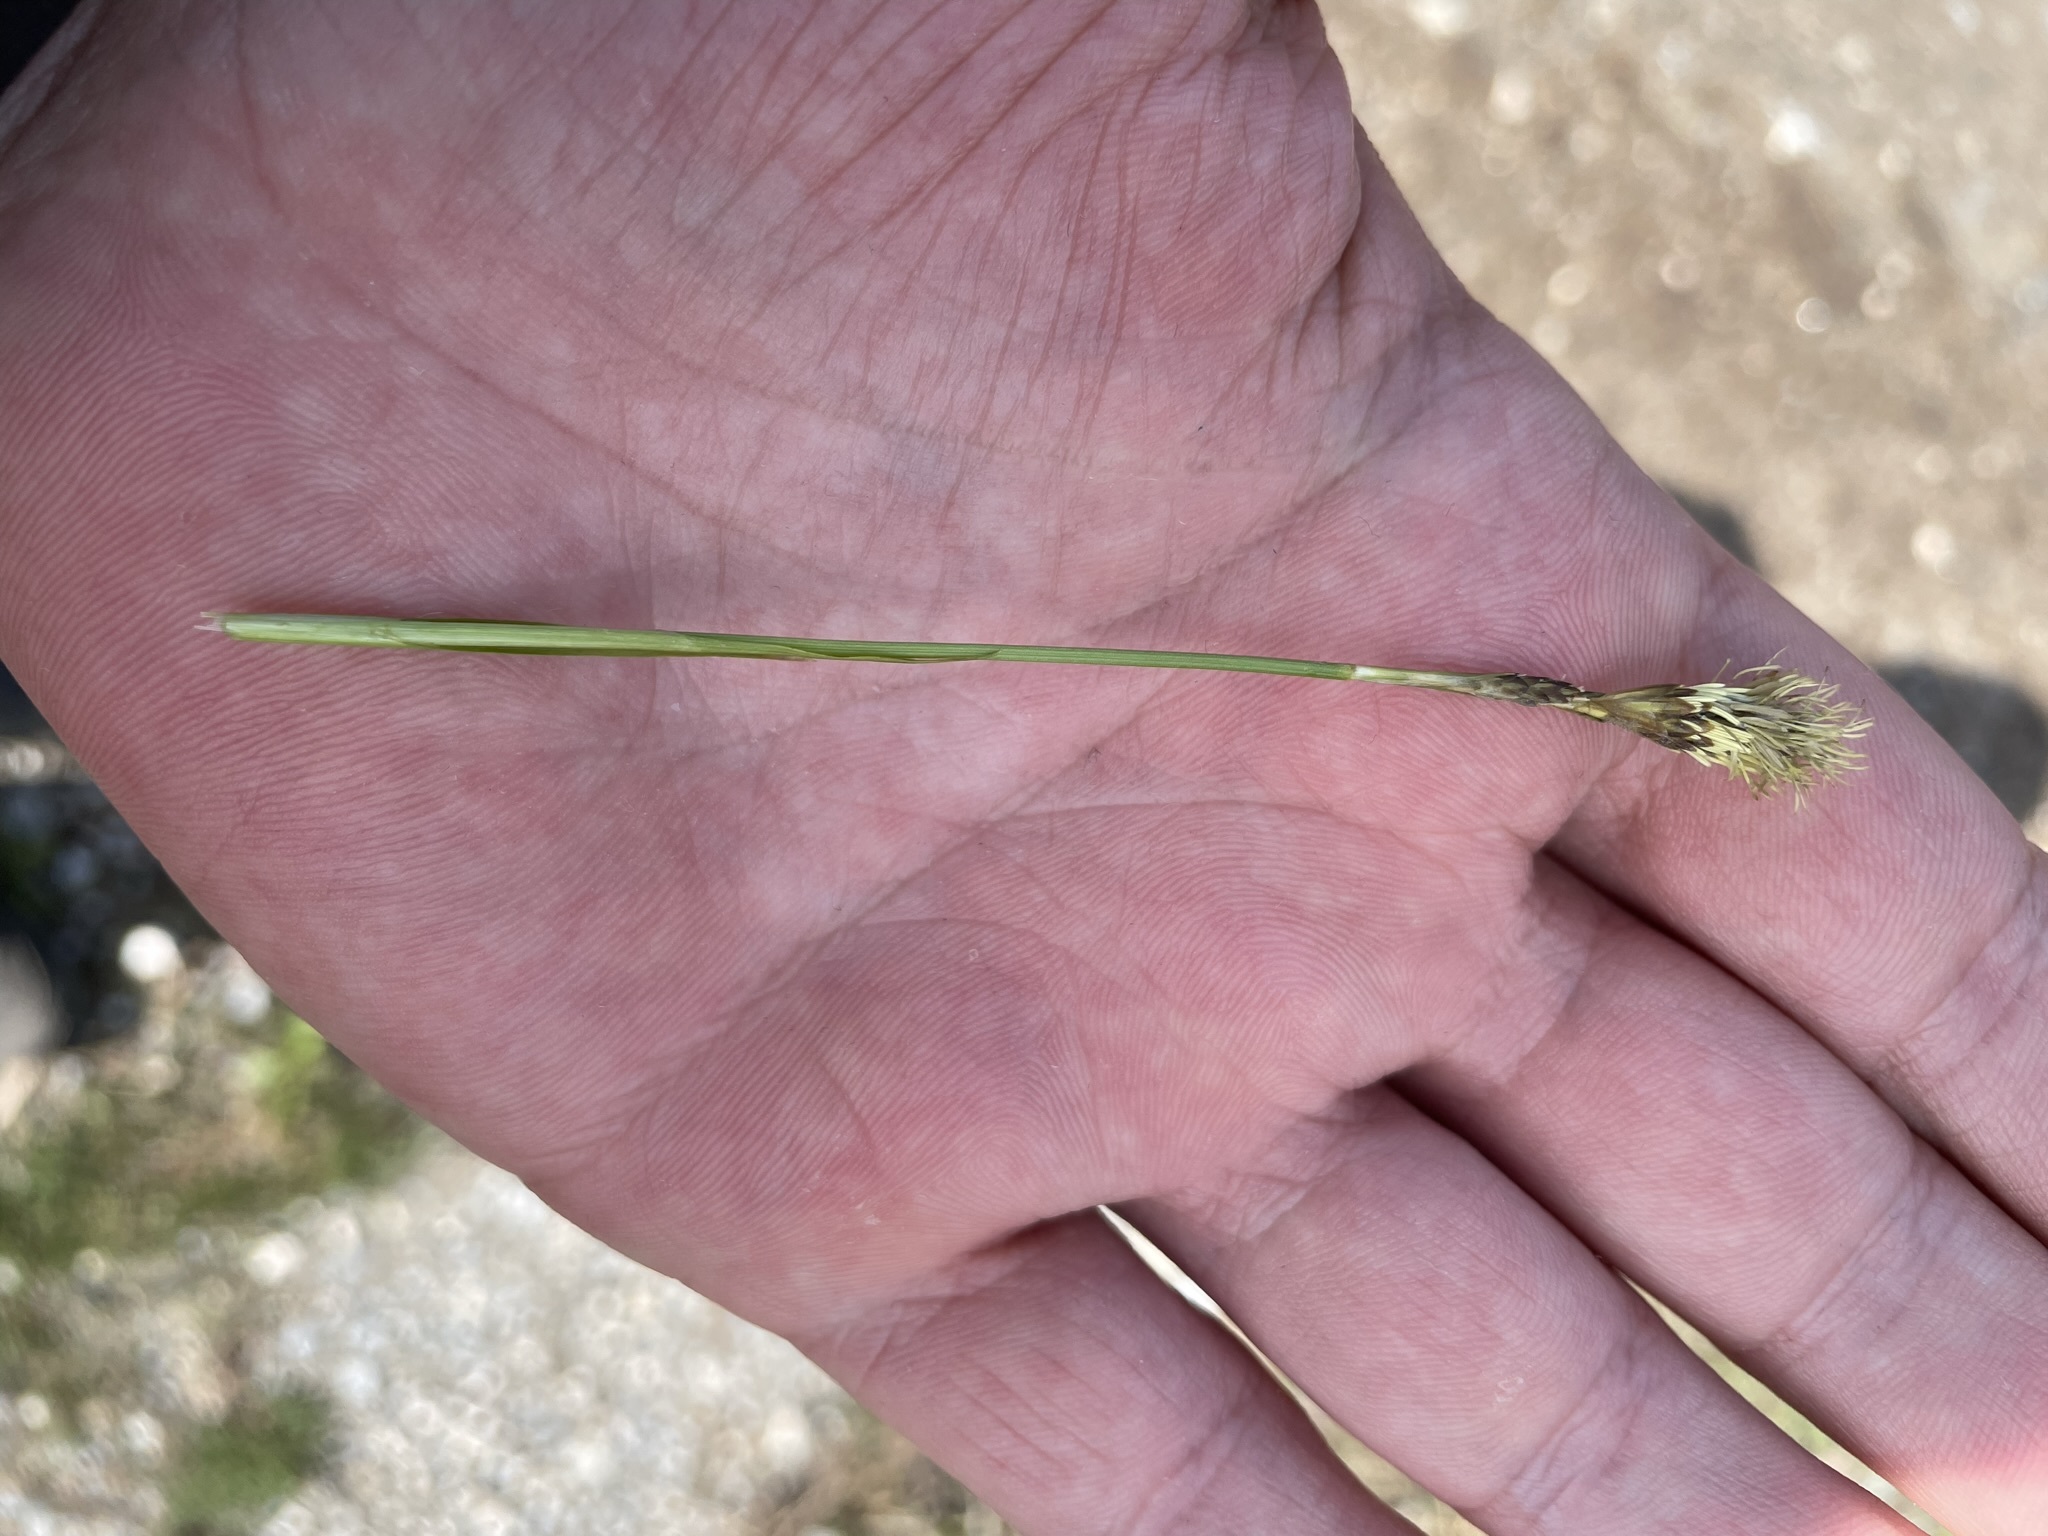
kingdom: Plantae
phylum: Tracheophyta
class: Liliopsida
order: Poales
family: Cyperaceae
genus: Carex
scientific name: Carex caryophyllea
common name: Spring sedge
